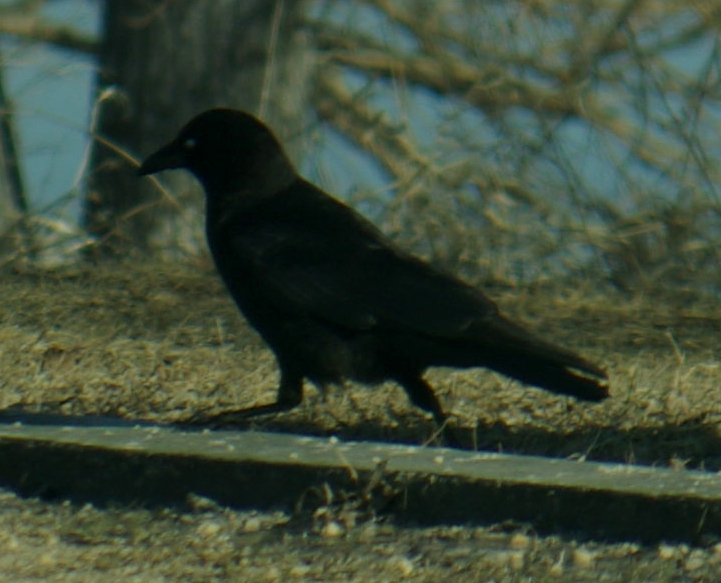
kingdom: Animalia
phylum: Chordata
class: Aves
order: Passeriformes
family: Corvidae
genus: Corvus
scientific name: Corvus brachyrhynchos
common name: American crow
